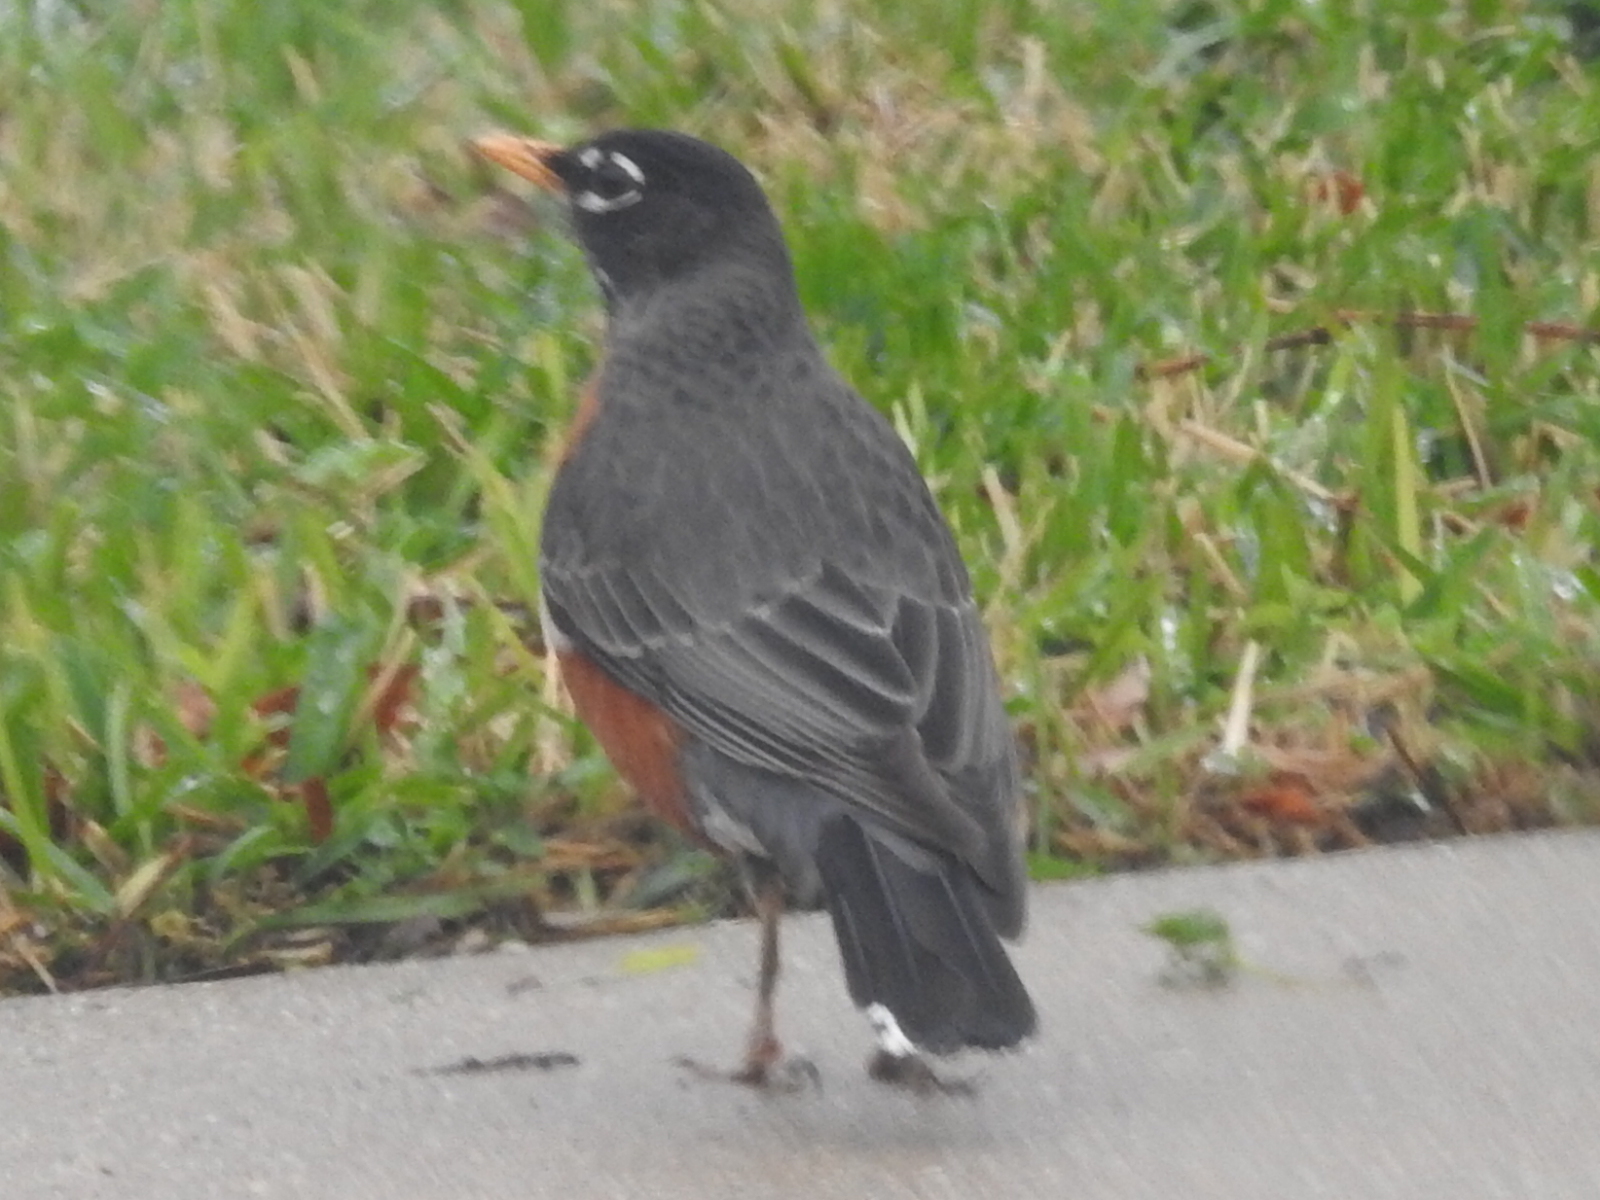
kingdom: Animalia
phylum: Chordata
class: Aves
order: Passeriformes
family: Turdidae
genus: Turdus
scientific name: Turdus migratorius
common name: American robin
